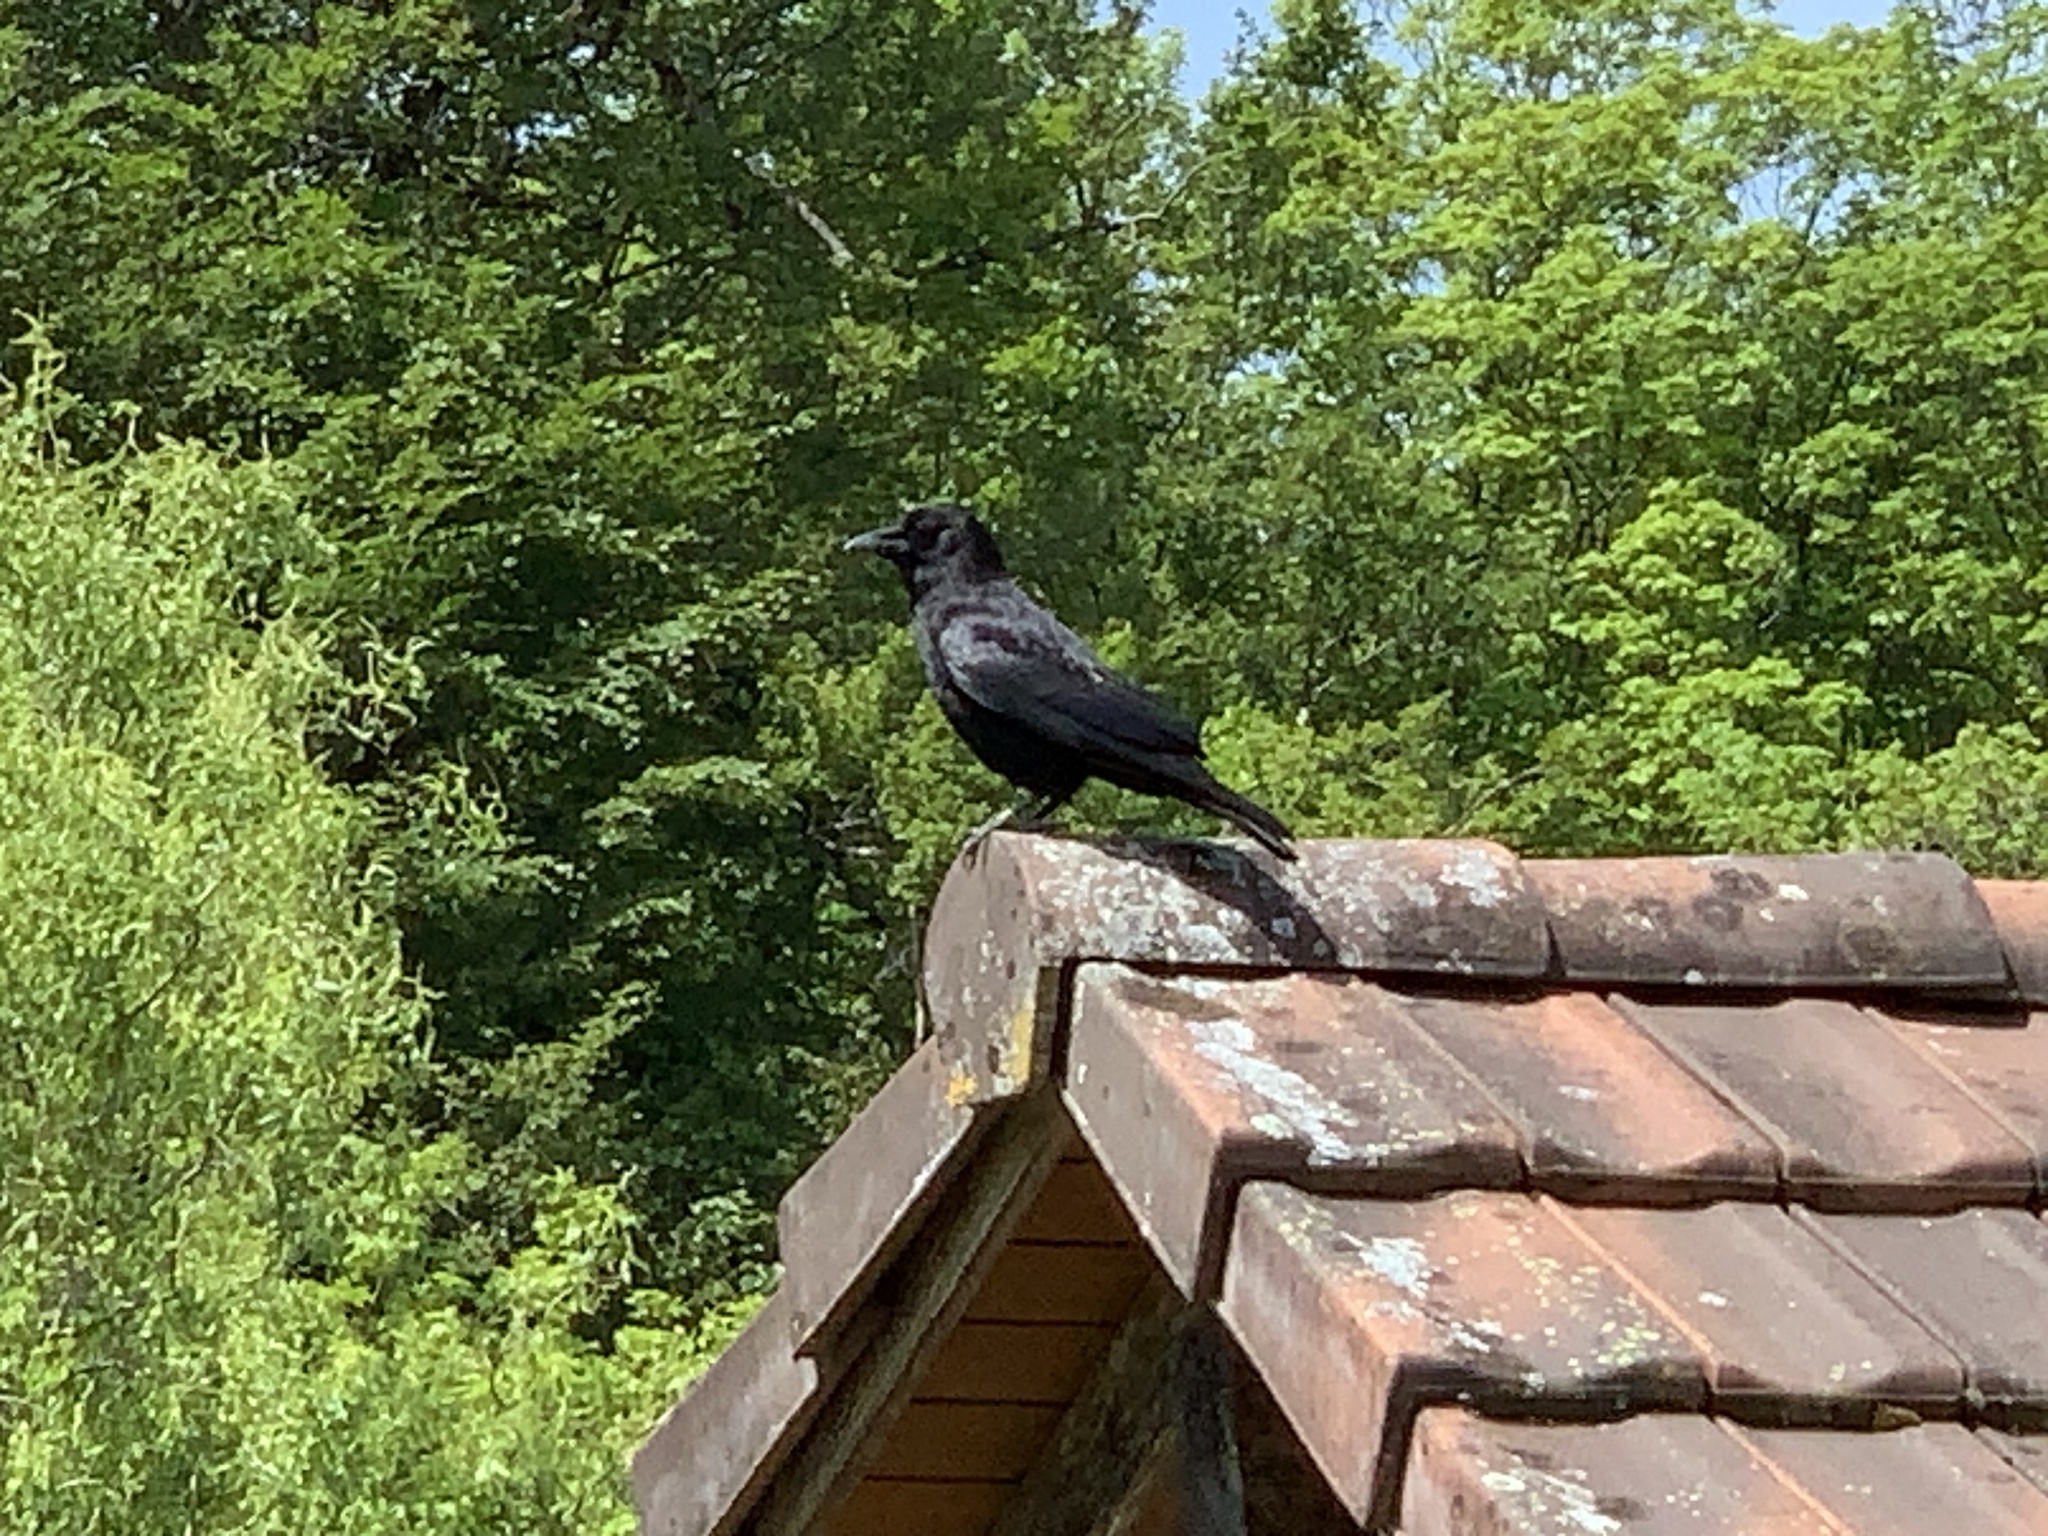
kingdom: Animalia
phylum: Chordata
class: Aves
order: Passeriformes
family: Corvidae
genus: Corvus
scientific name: Corvus corone
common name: Carrion crow
